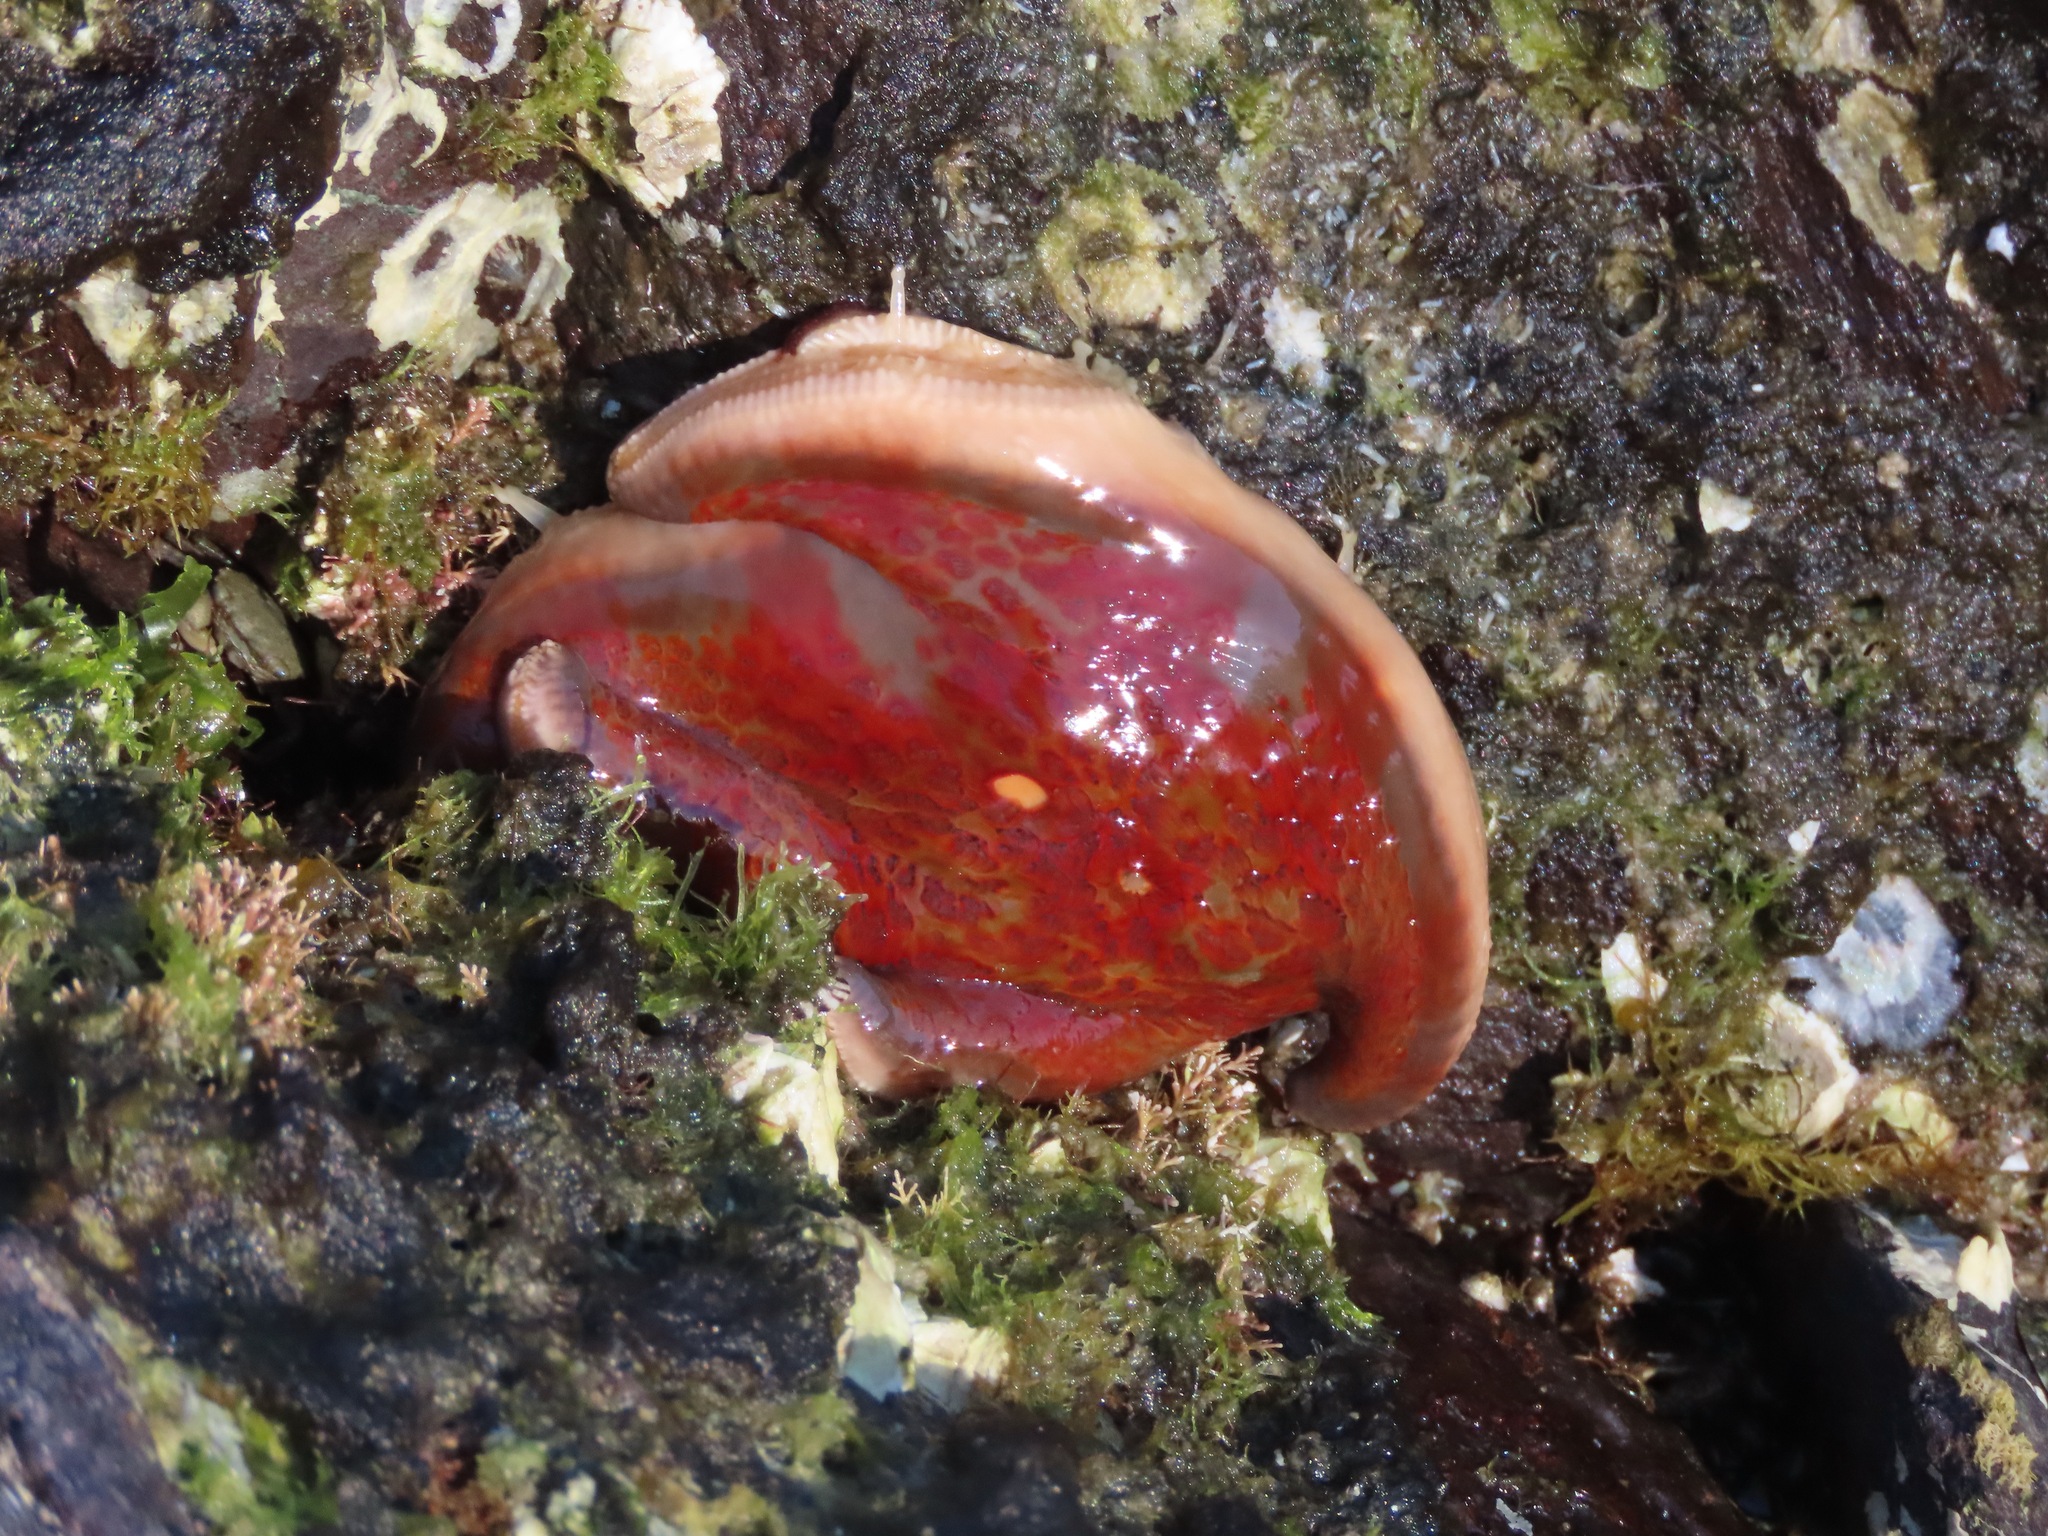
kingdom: Animalia
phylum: Echinodermata
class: Asteroidea
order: Valvatida
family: Asteropseidae
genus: Dermasterias
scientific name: Dermasterias imbricata
